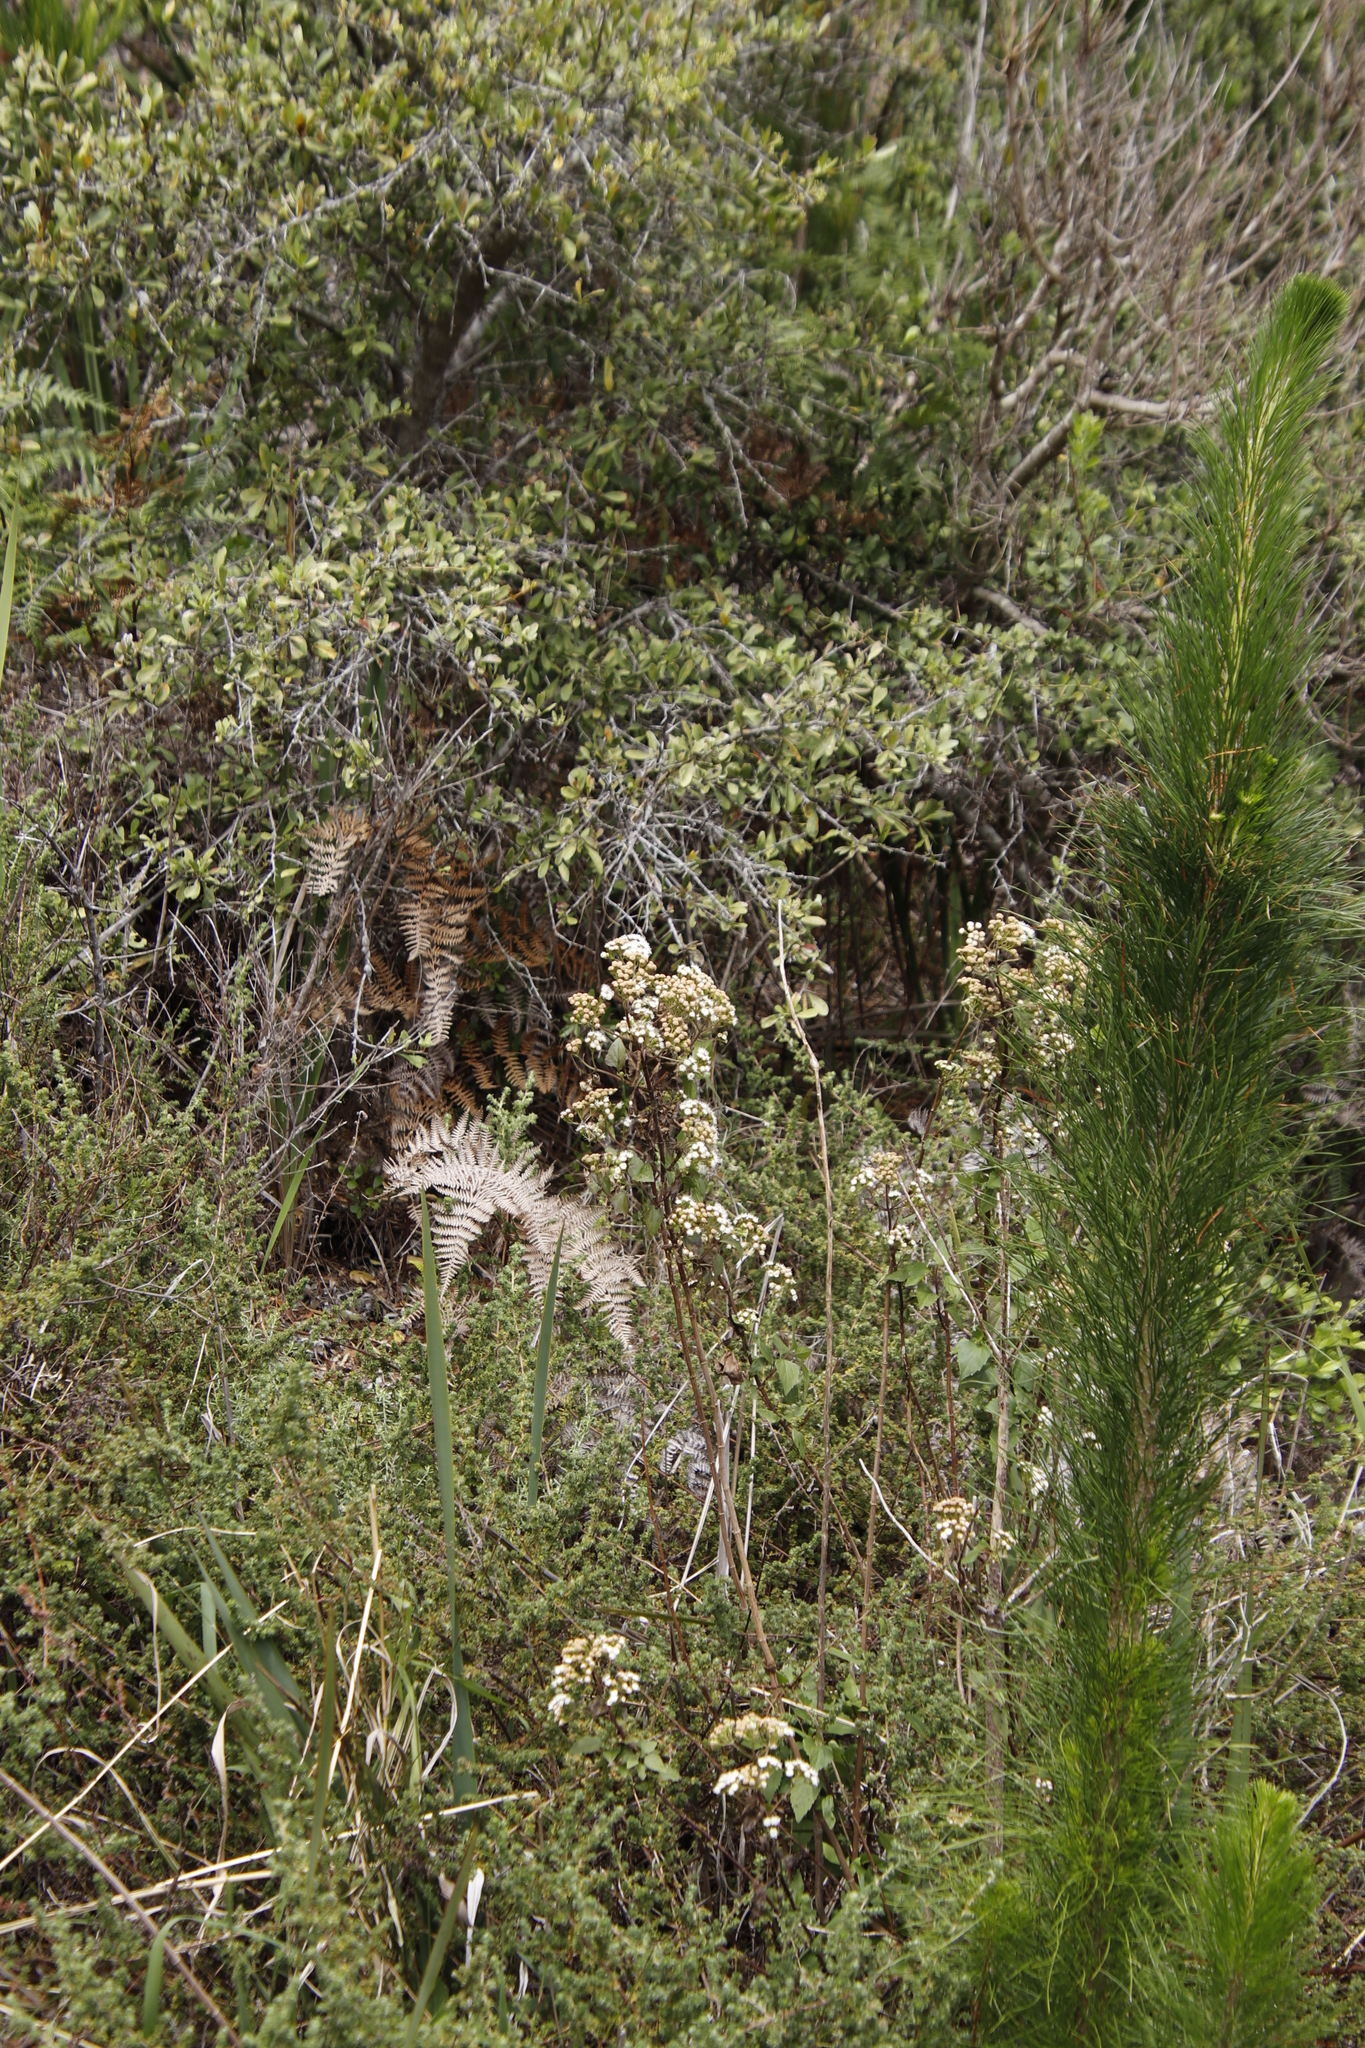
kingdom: Plantae
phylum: Tracheophyta
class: Magnoliopsida
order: Asterales
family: Asteraceae
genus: Ageratina
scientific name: Ageratina adenophora
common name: Sticky snakeroot
